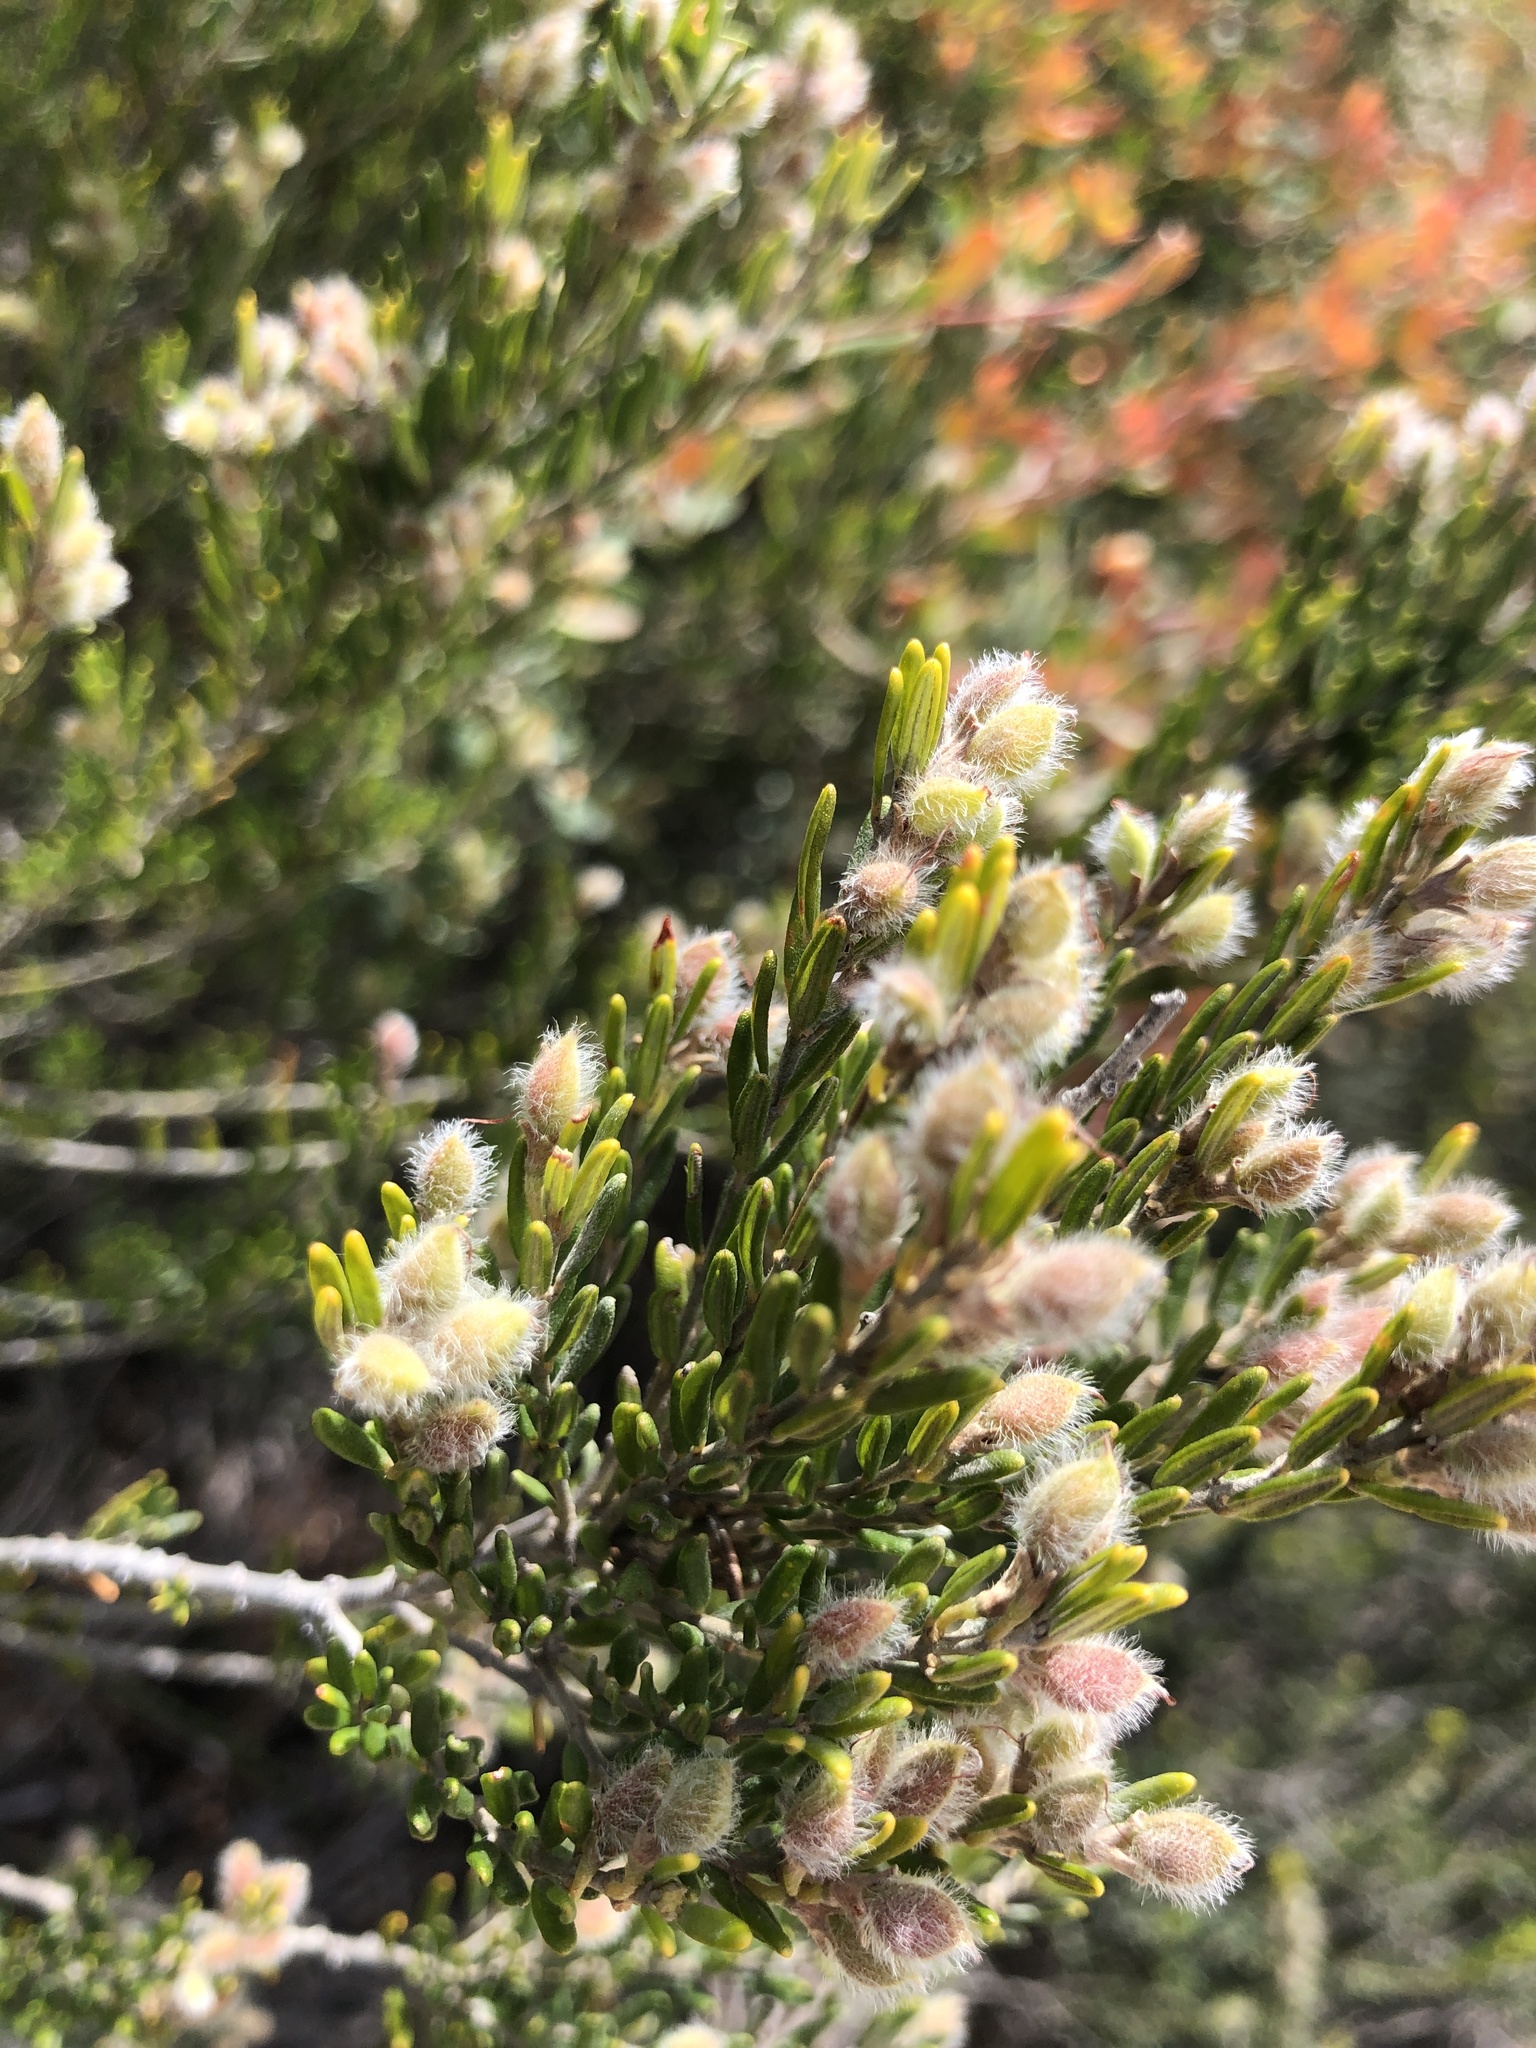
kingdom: Plantae
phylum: Tracheophyta
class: Magnoliopsida
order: Fabales
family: Fabaceae
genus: Aotus
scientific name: Aotus ericoides
